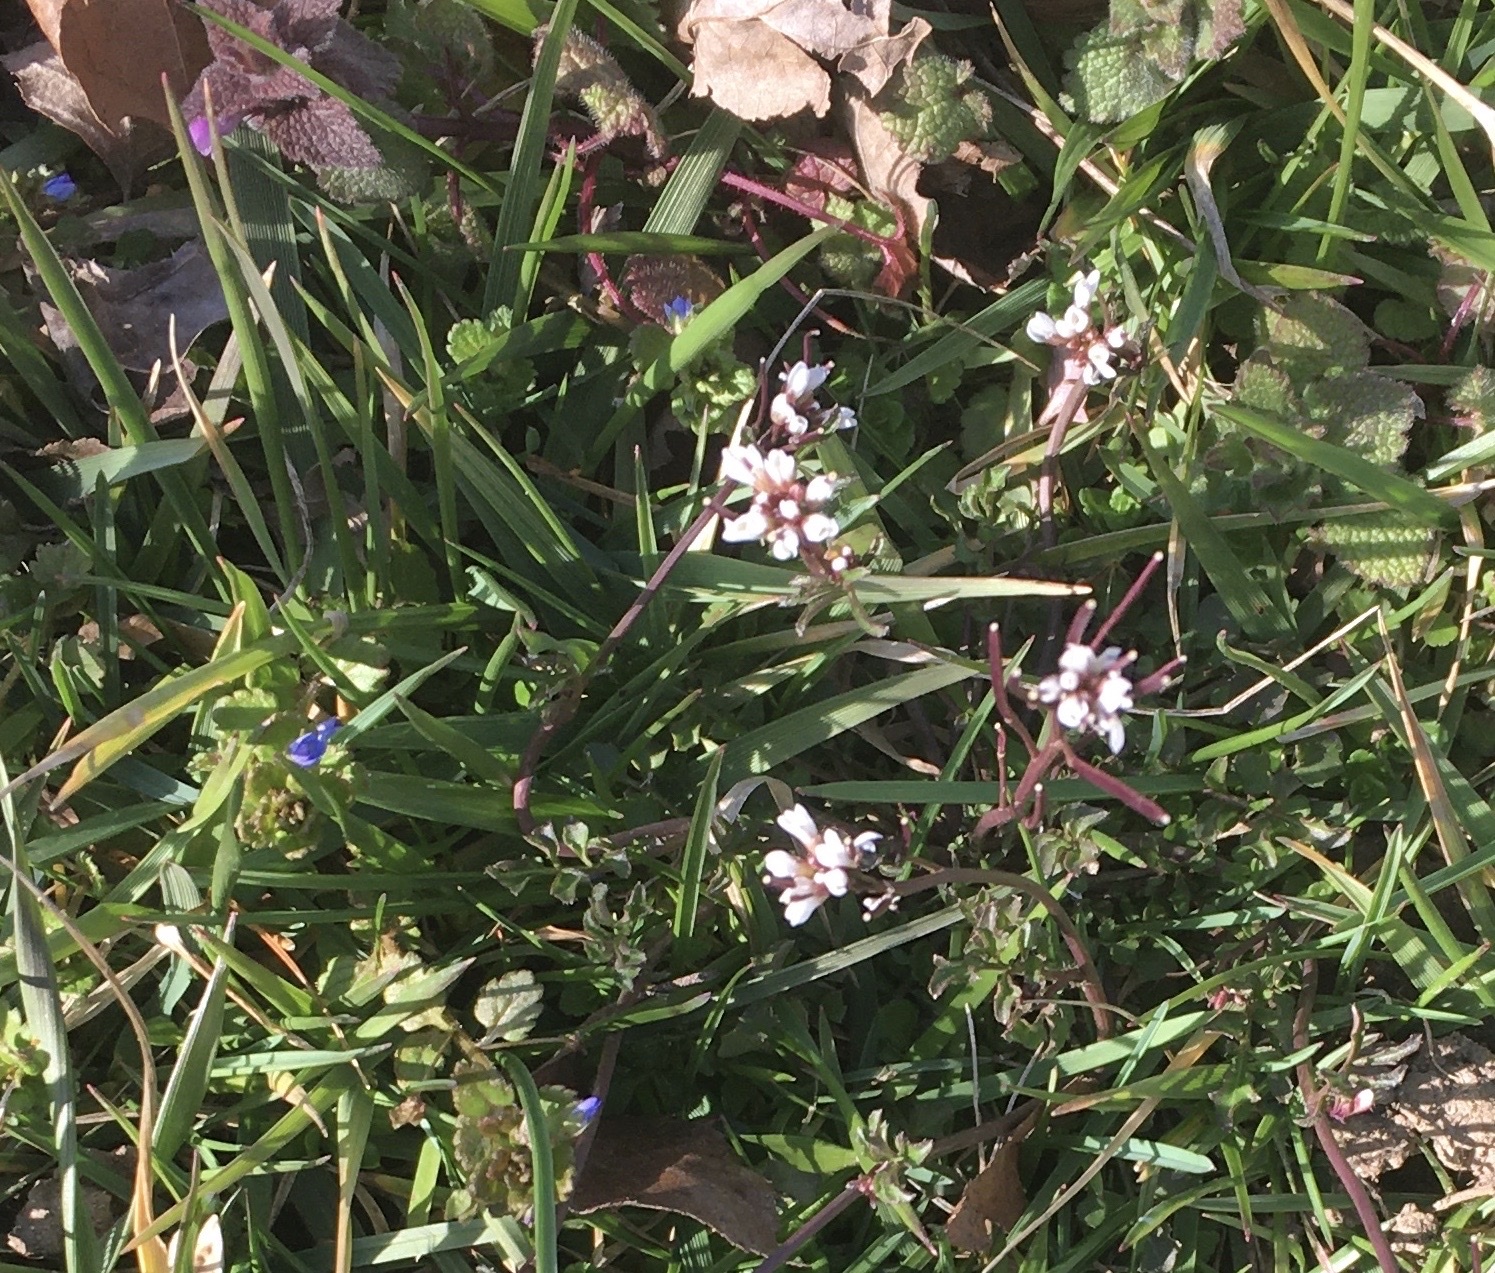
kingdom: Plantae
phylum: Tracheophyta
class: Magnoliopsida
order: Brassicales
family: Brassicaceae
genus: Cardamine
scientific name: Cardamine hirsuta
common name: Hairy bittercress
